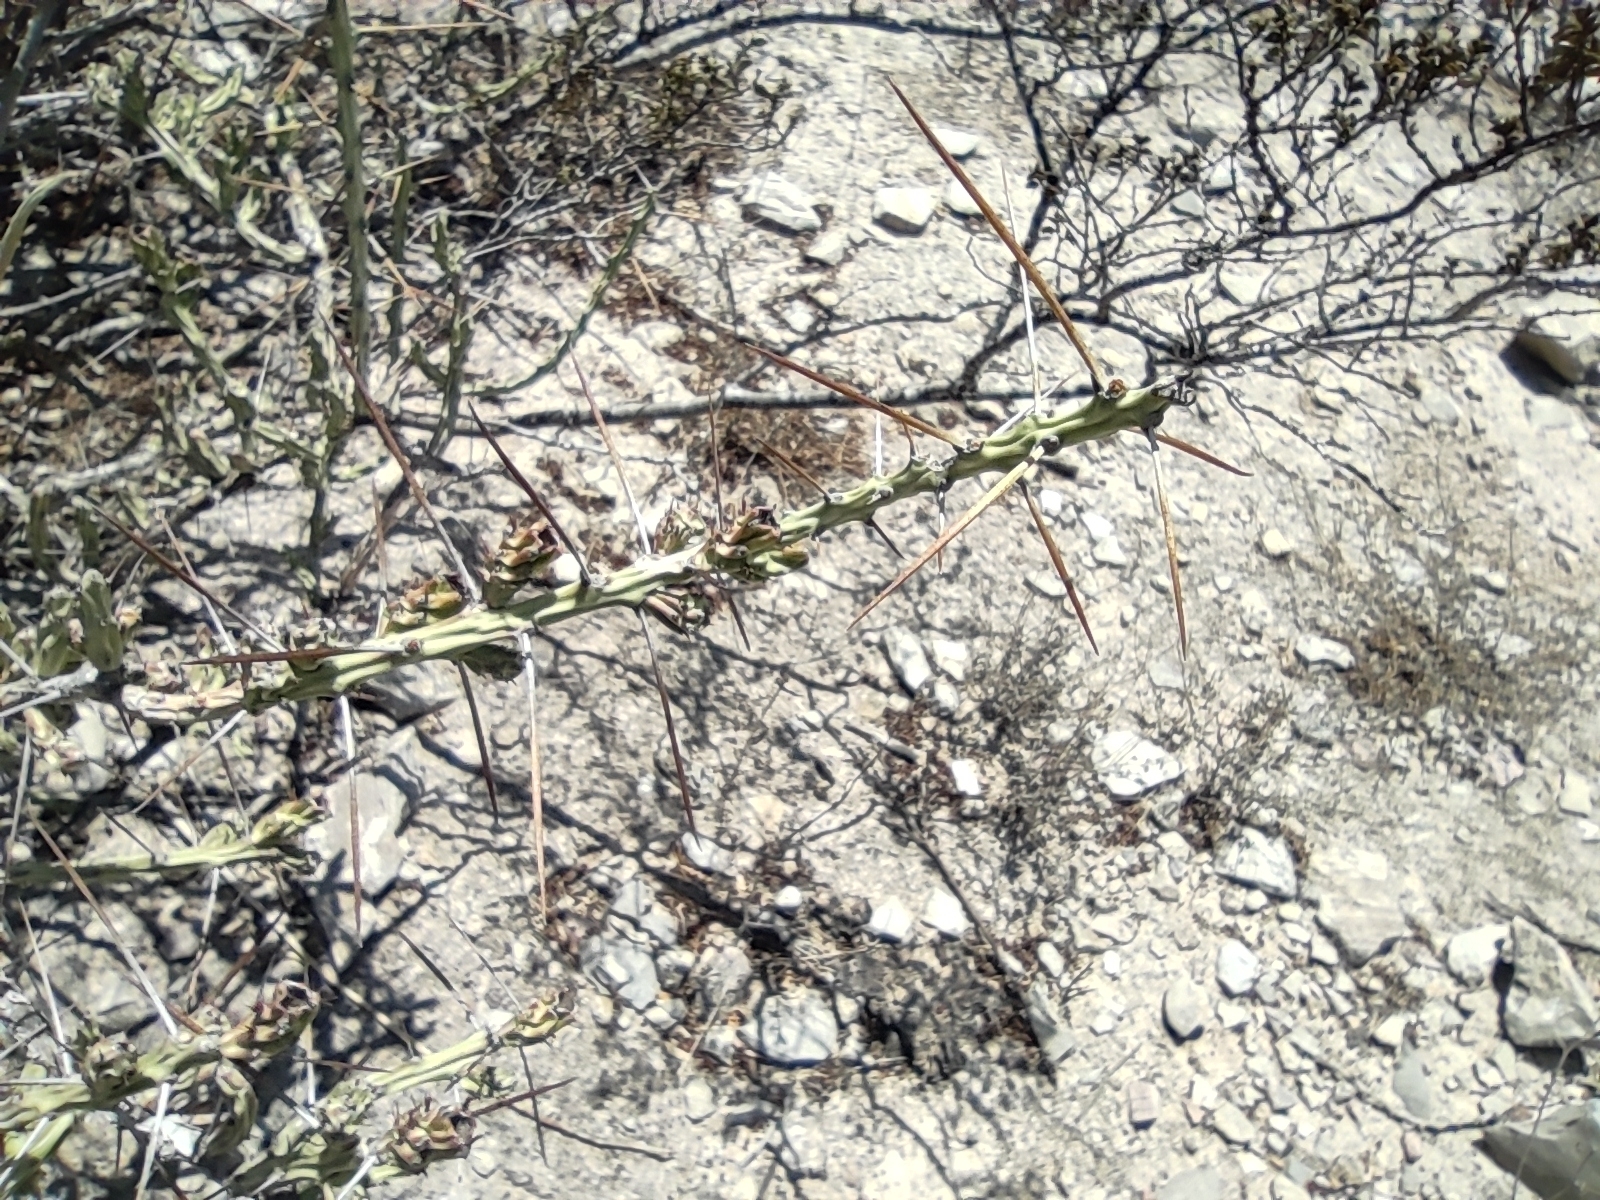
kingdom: Plantae
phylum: Tracheophyta
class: Magnoliopsida
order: Caryophyllales
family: Cactaceae
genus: Cylindropuntia
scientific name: Cylindropuntia leptocaulis
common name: Christmas cactus
